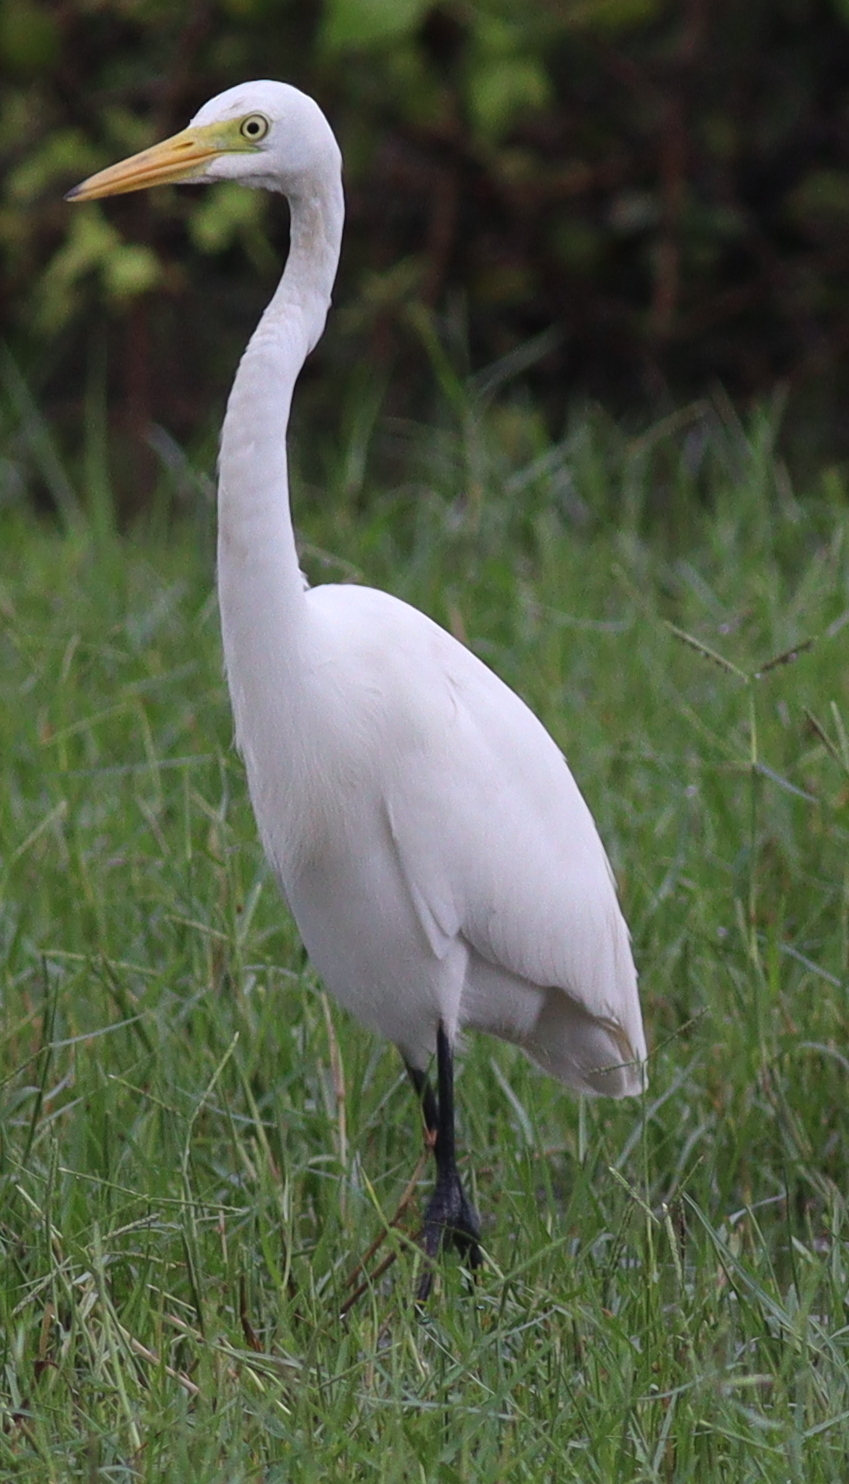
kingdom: Animalia
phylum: Chordata
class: Aves
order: Pelecaniformes
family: Ardeidae
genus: Egretta
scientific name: Egretta intermedia
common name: Intermediate egret
